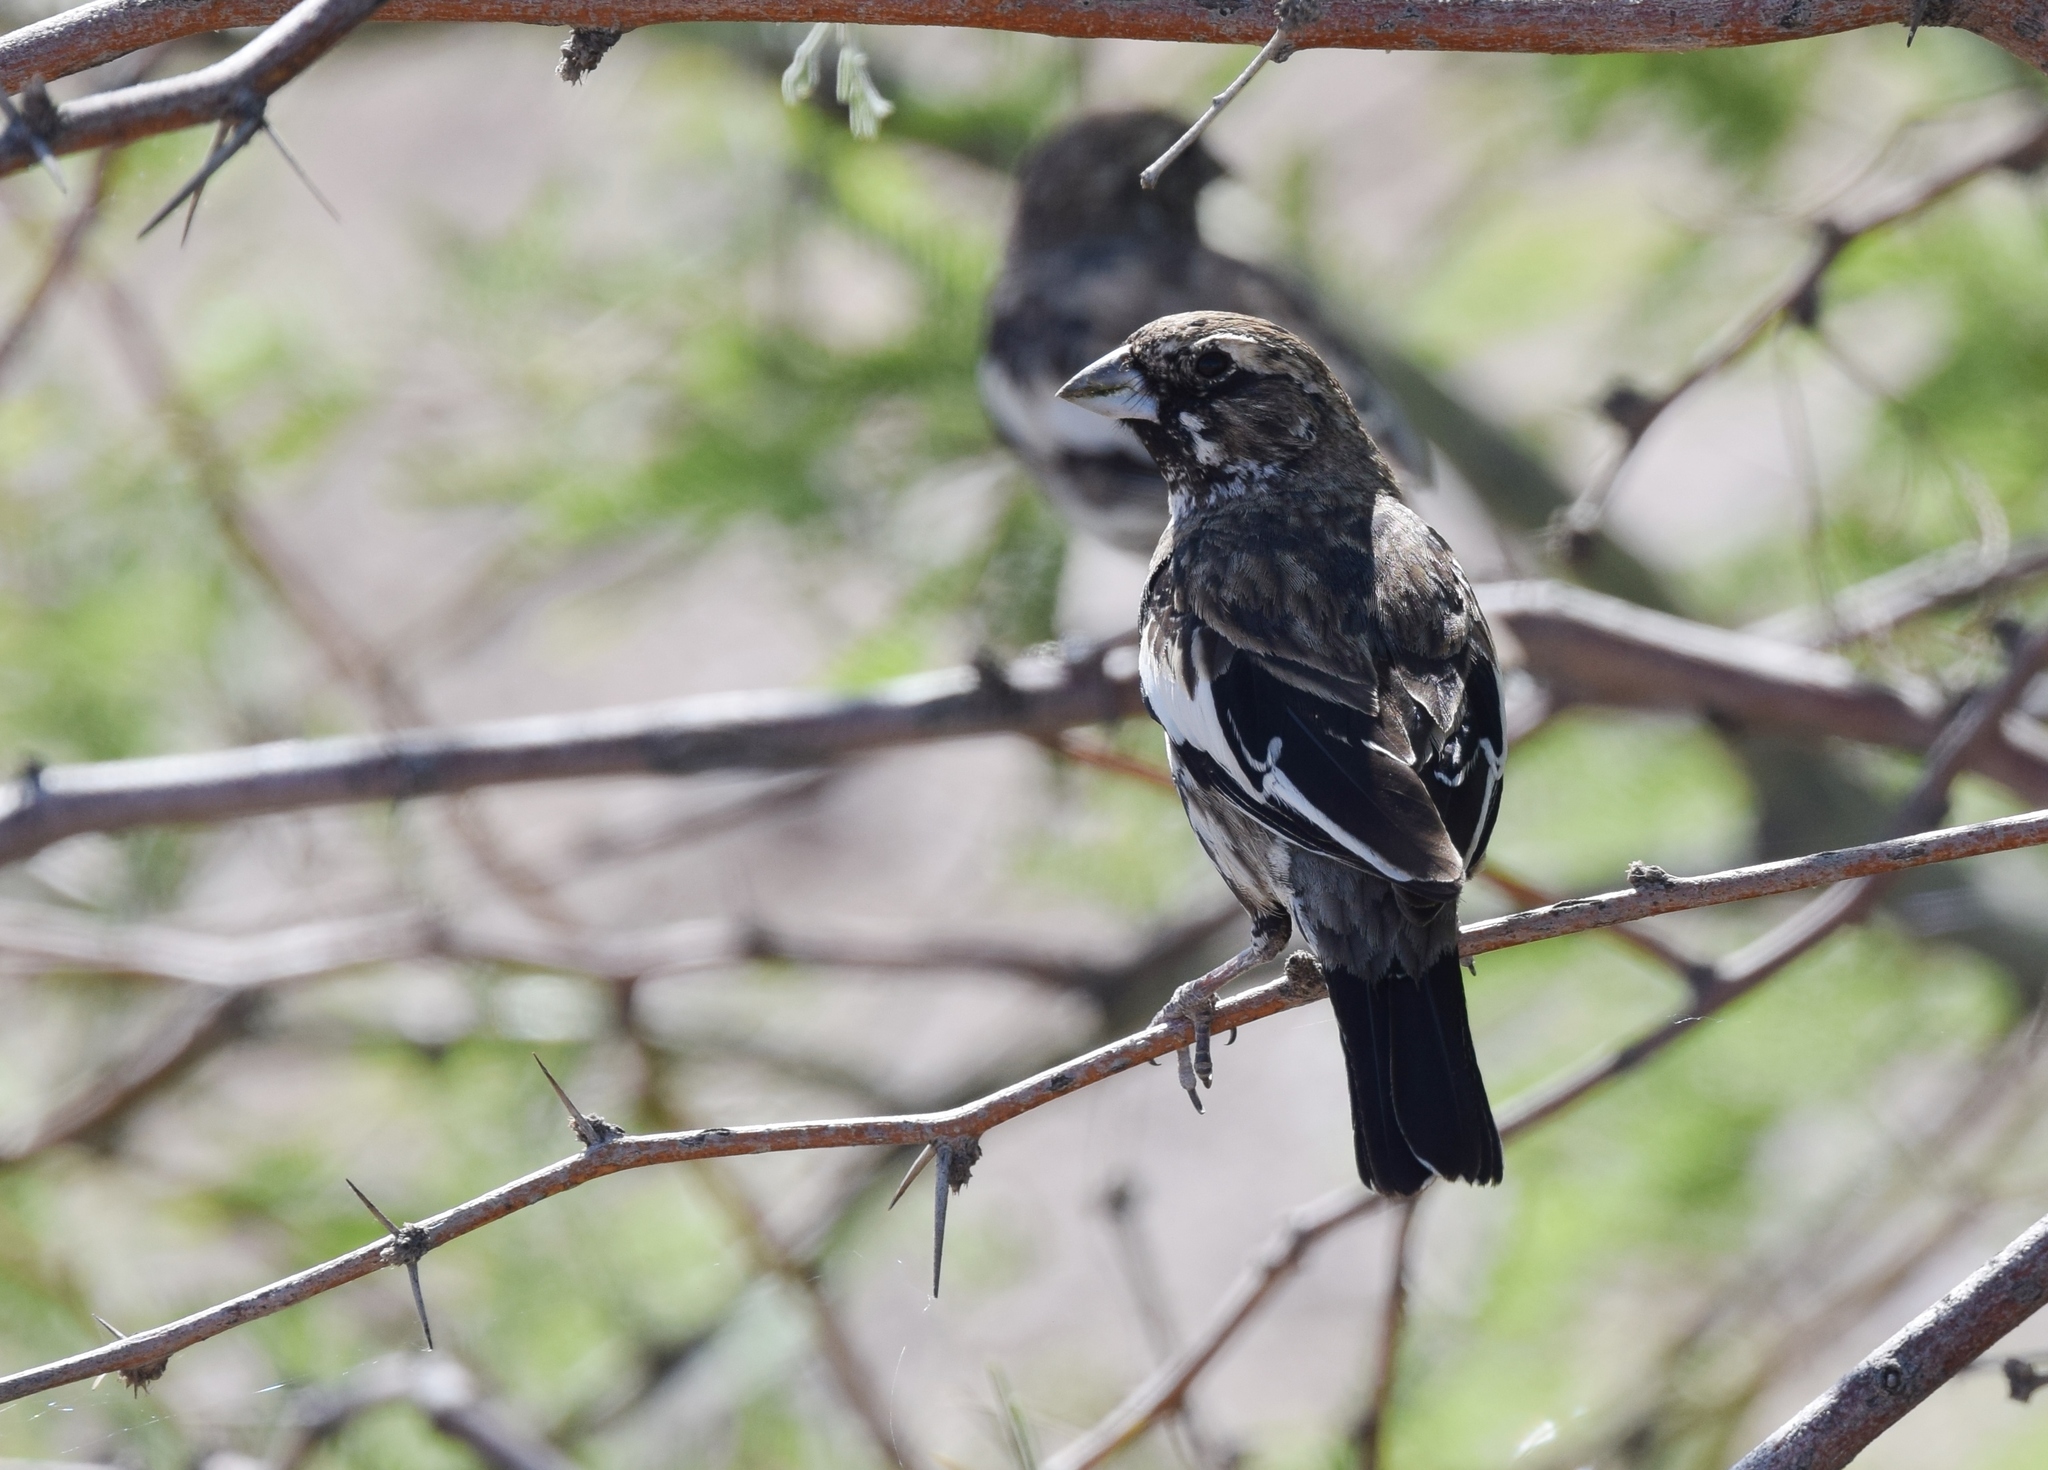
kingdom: Animalia
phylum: Chordata
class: Aves
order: Passeriformes
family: Passerellidae
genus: Calamospiza
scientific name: Calamospiza melanocorys
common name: Lark bunting
